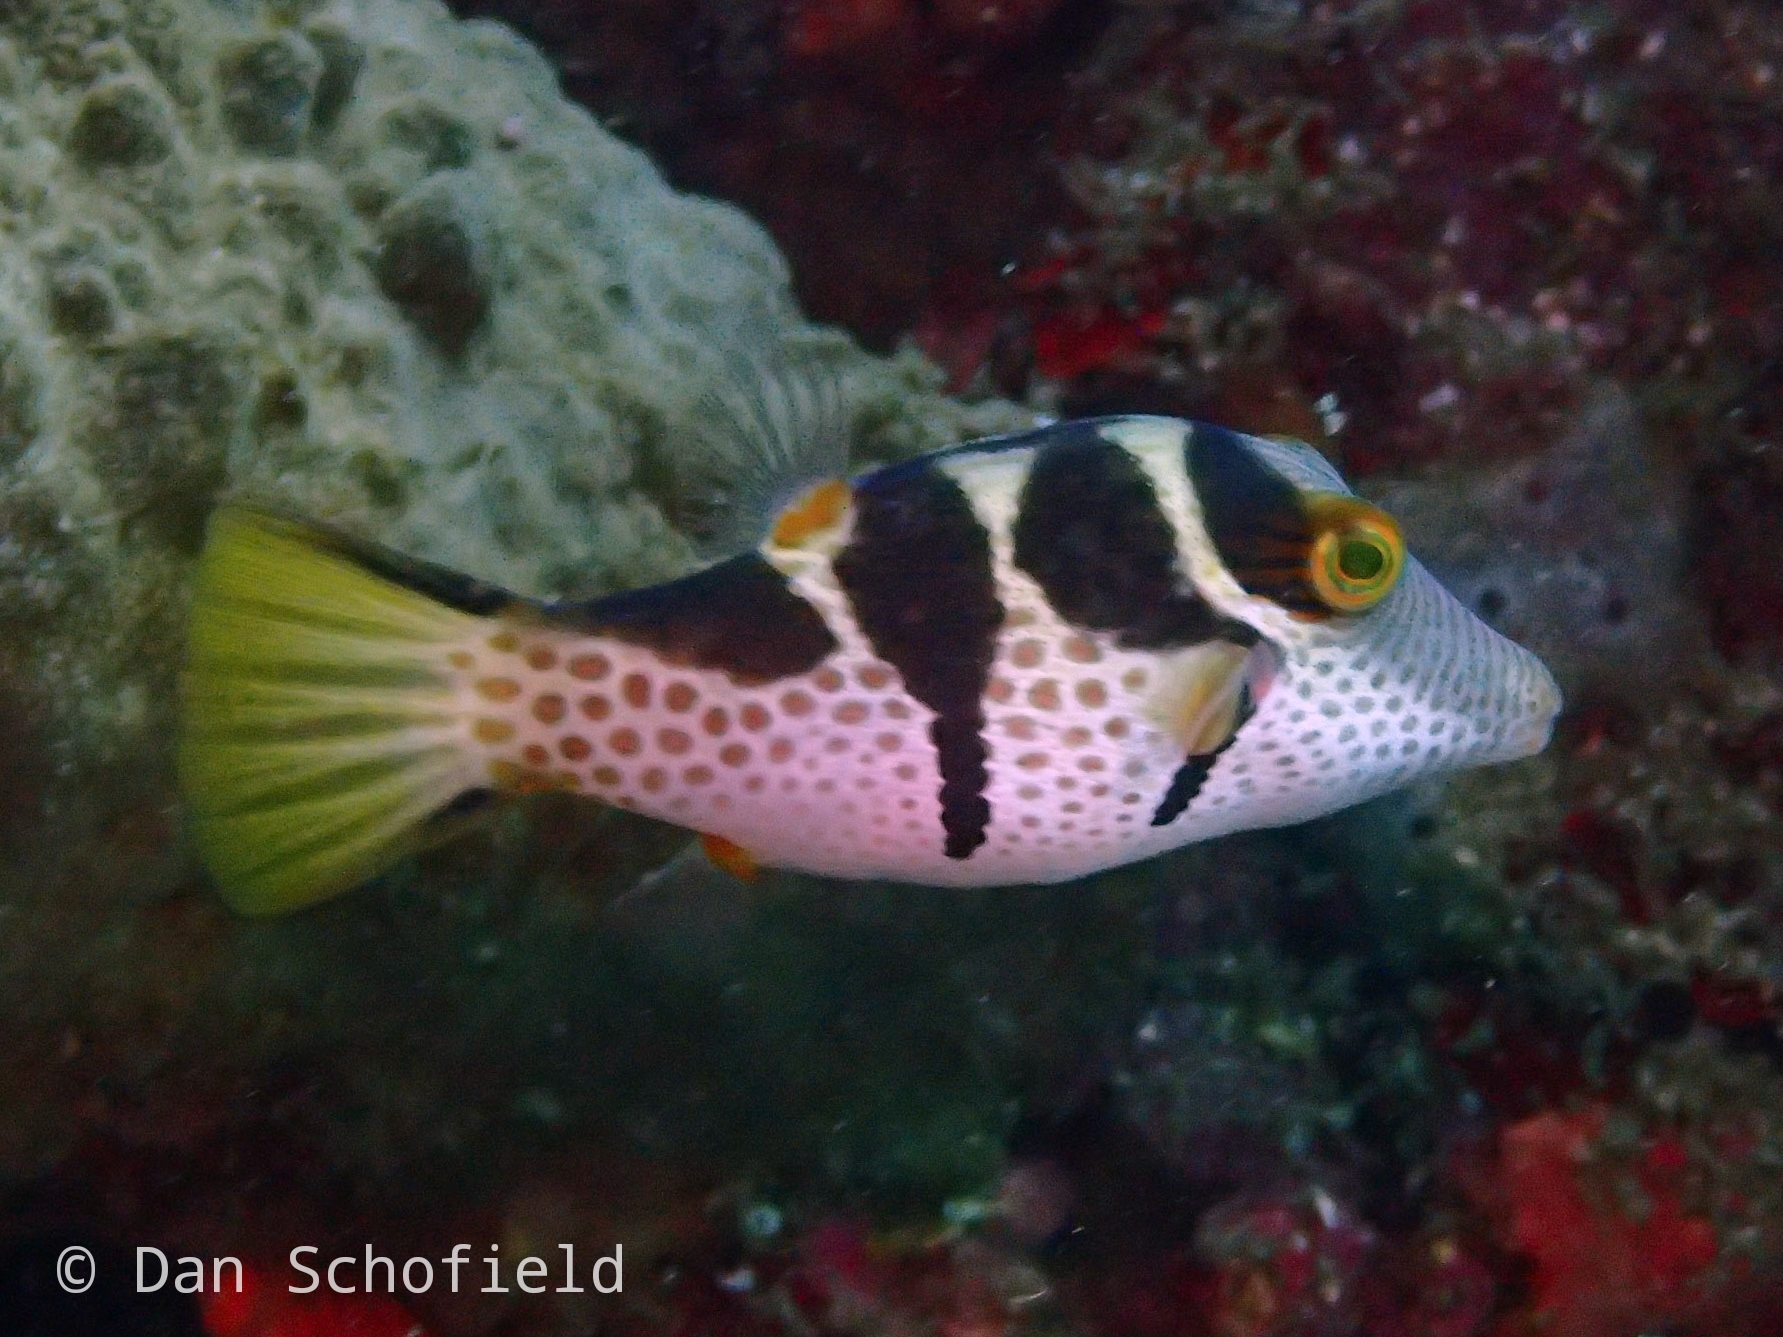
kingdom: Animalia
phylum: Chordata
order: Tetraodontiformes
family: Tetraodontidae
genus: Canthigaster
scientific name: Canthigaster valentini
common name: Banded toby
